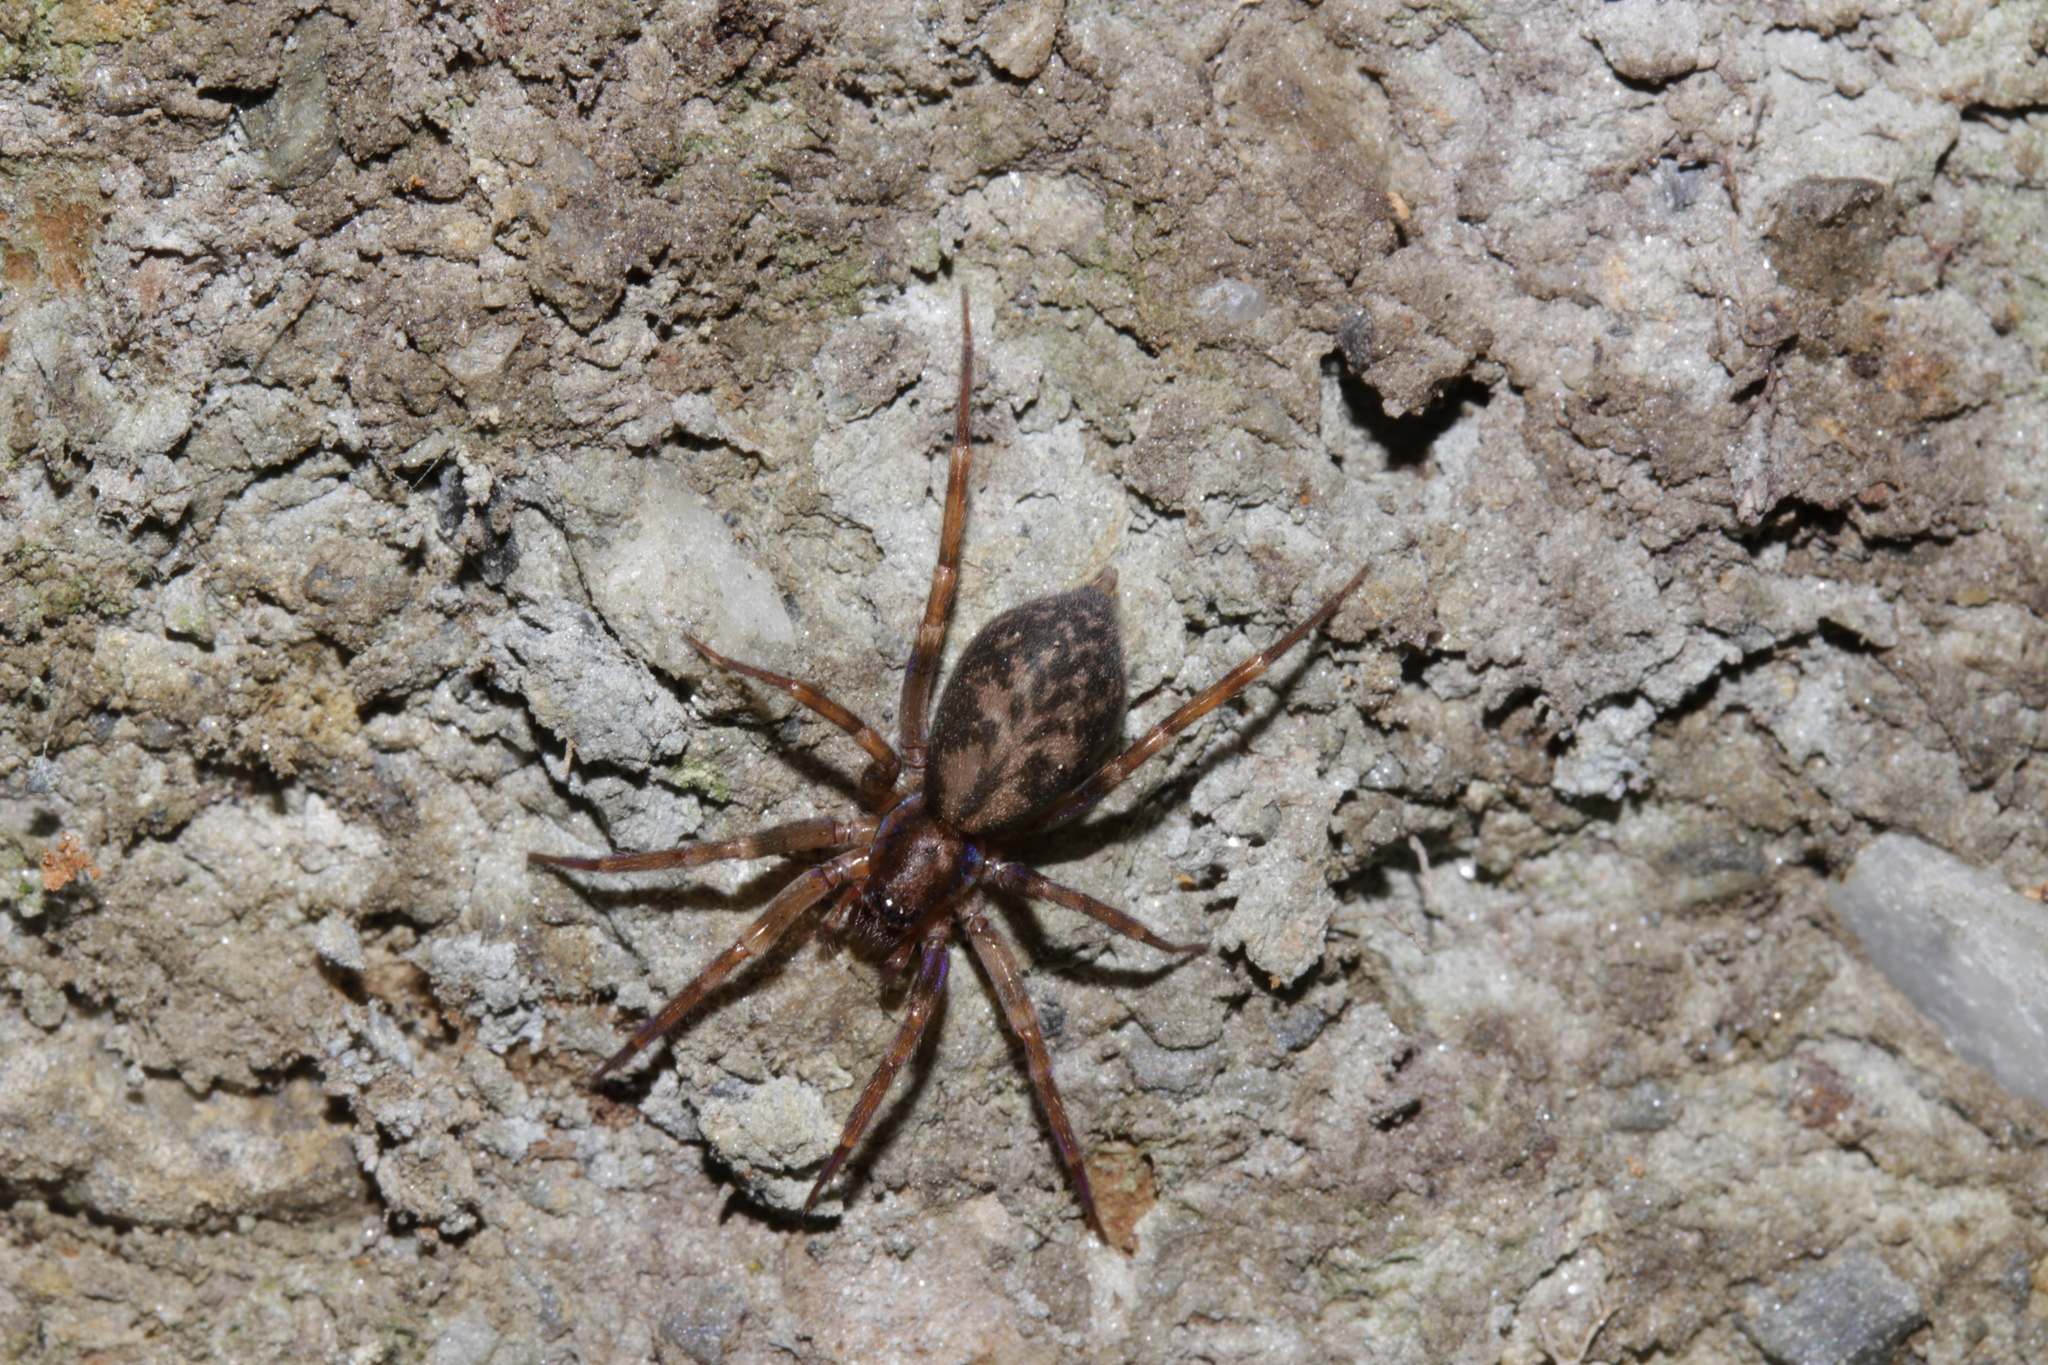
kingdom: Animalia
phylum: Arthropoda
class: Arachnida
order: Araneae
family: Liocranidae
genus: Liocranum
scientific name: Liocranum rupicola
